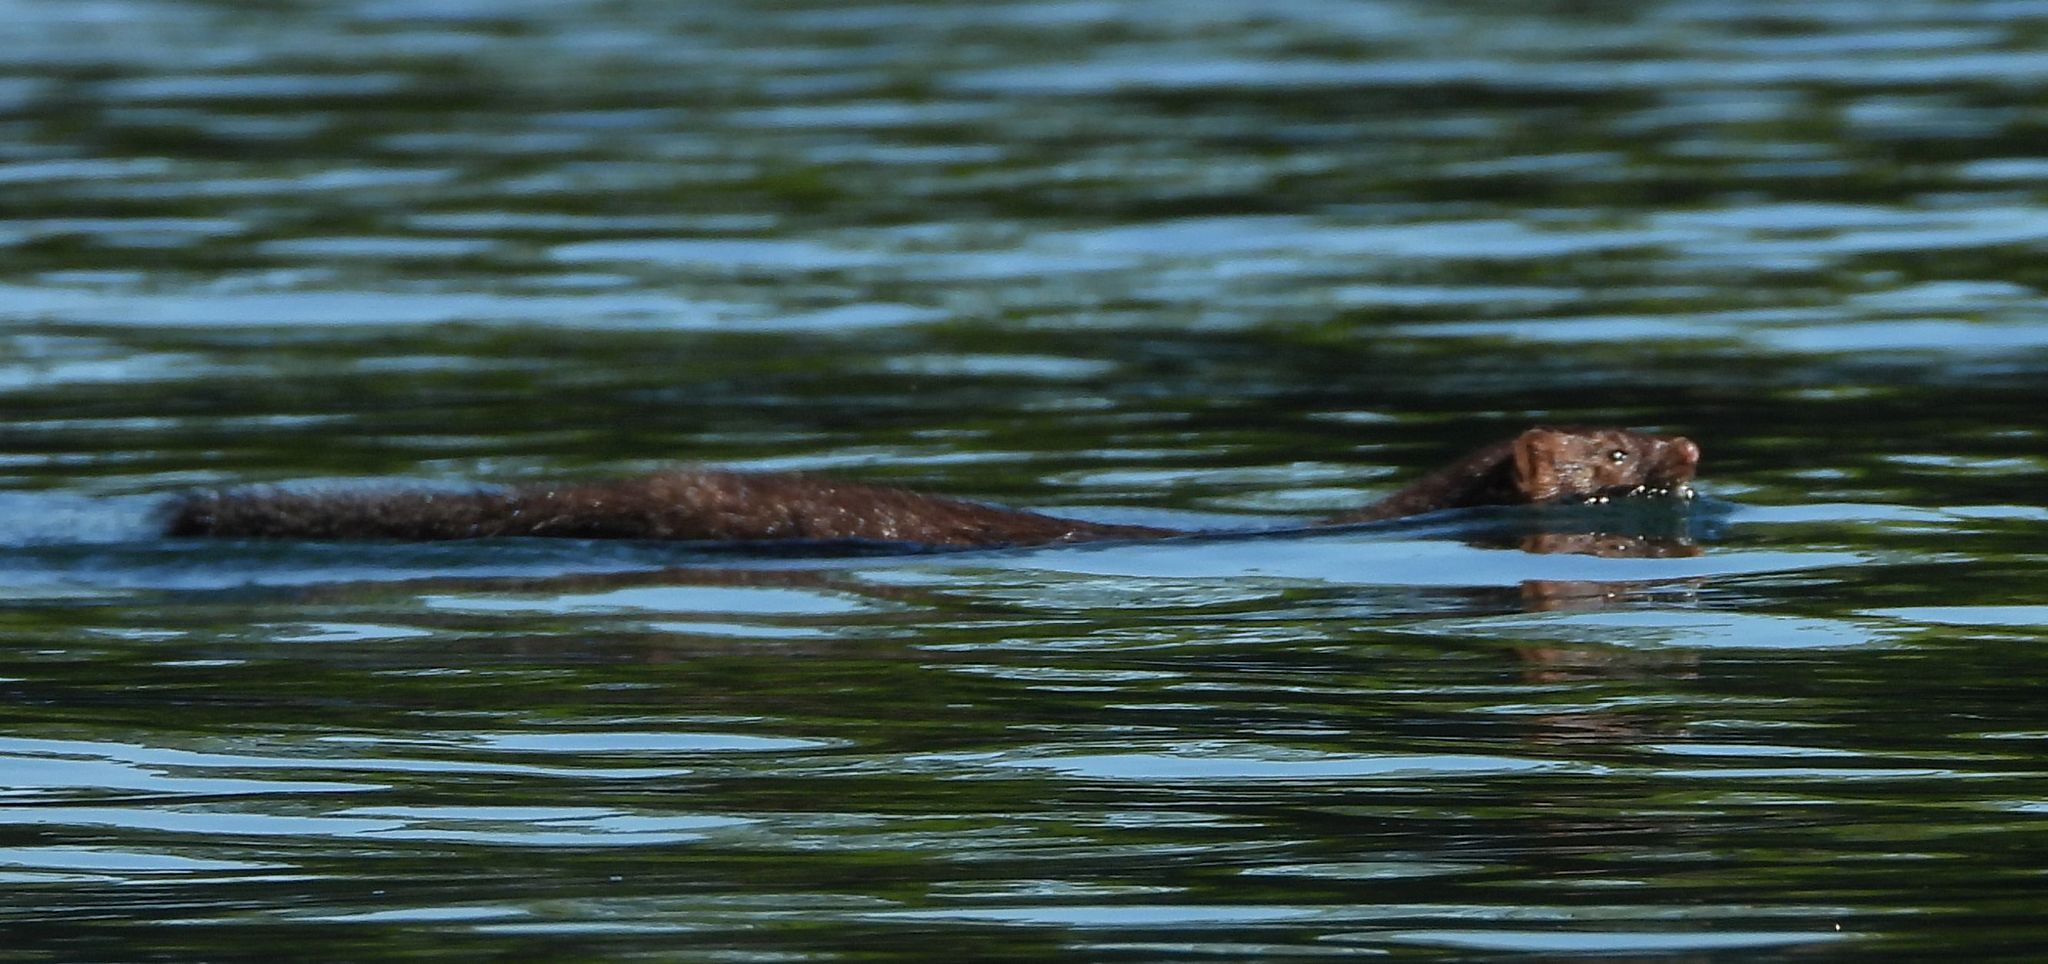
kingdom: Animalia
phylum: Chordata
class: Mammalia
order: Carnivora
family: Mustelidae
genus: Mustela
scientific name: Mustela
